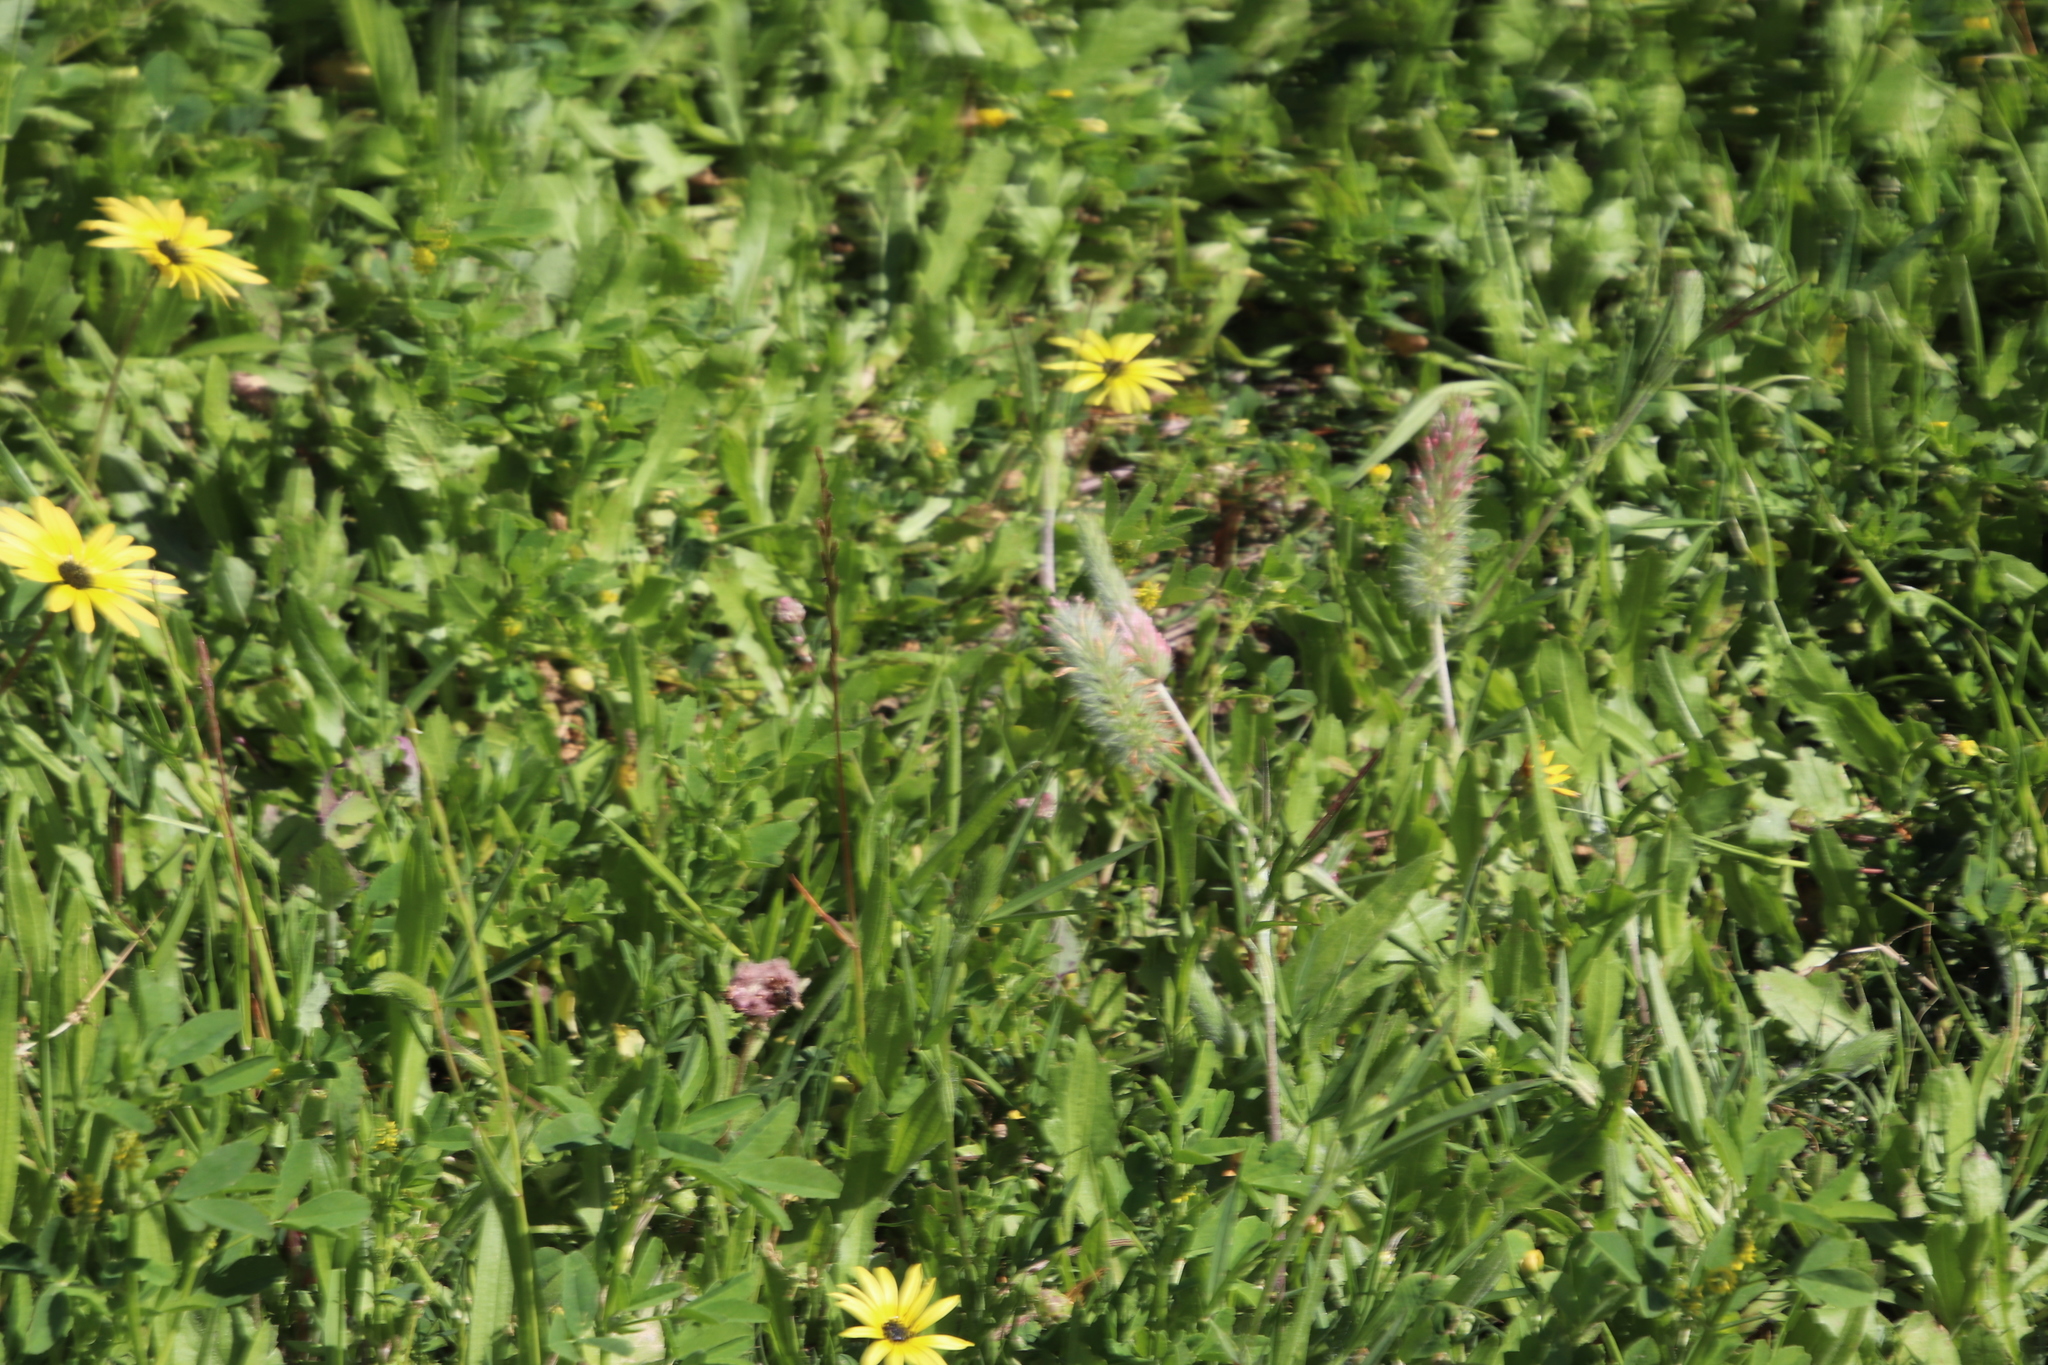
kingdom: Plantae
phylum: Tracheophyta
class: Magnoliopsida
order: Fabales
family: Fabaceae
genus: Trifolium
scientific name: Trifolium angustifolium
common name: Narrow clover
